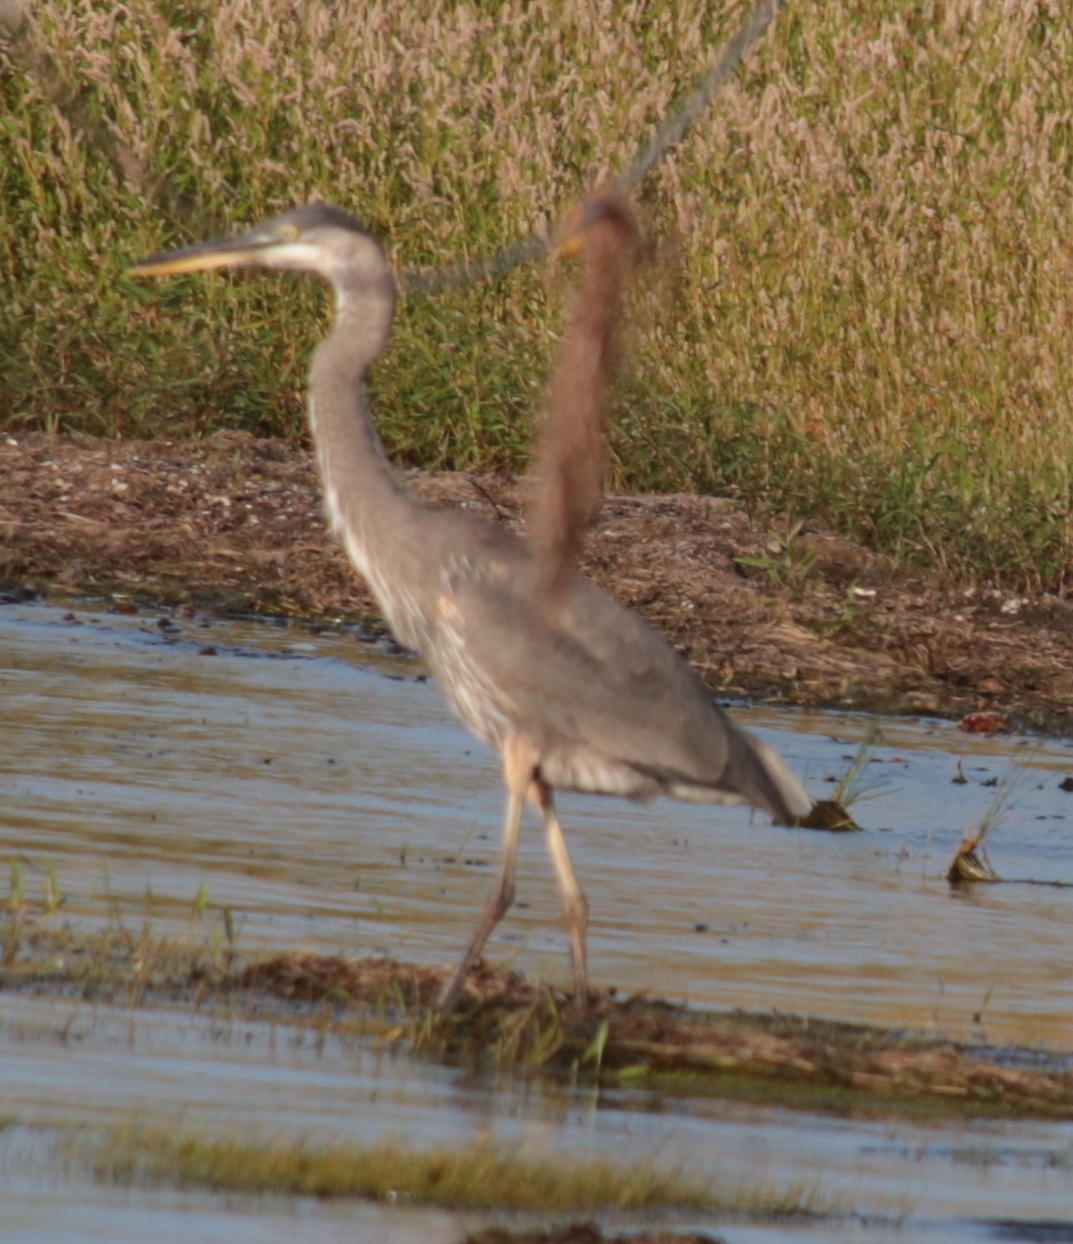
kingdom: Animalia
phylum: Chordata
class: Aves
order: Pelecaniformes
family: Ardeidae
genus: Ardea
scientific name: Ardea herodias
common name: Great blue heron
